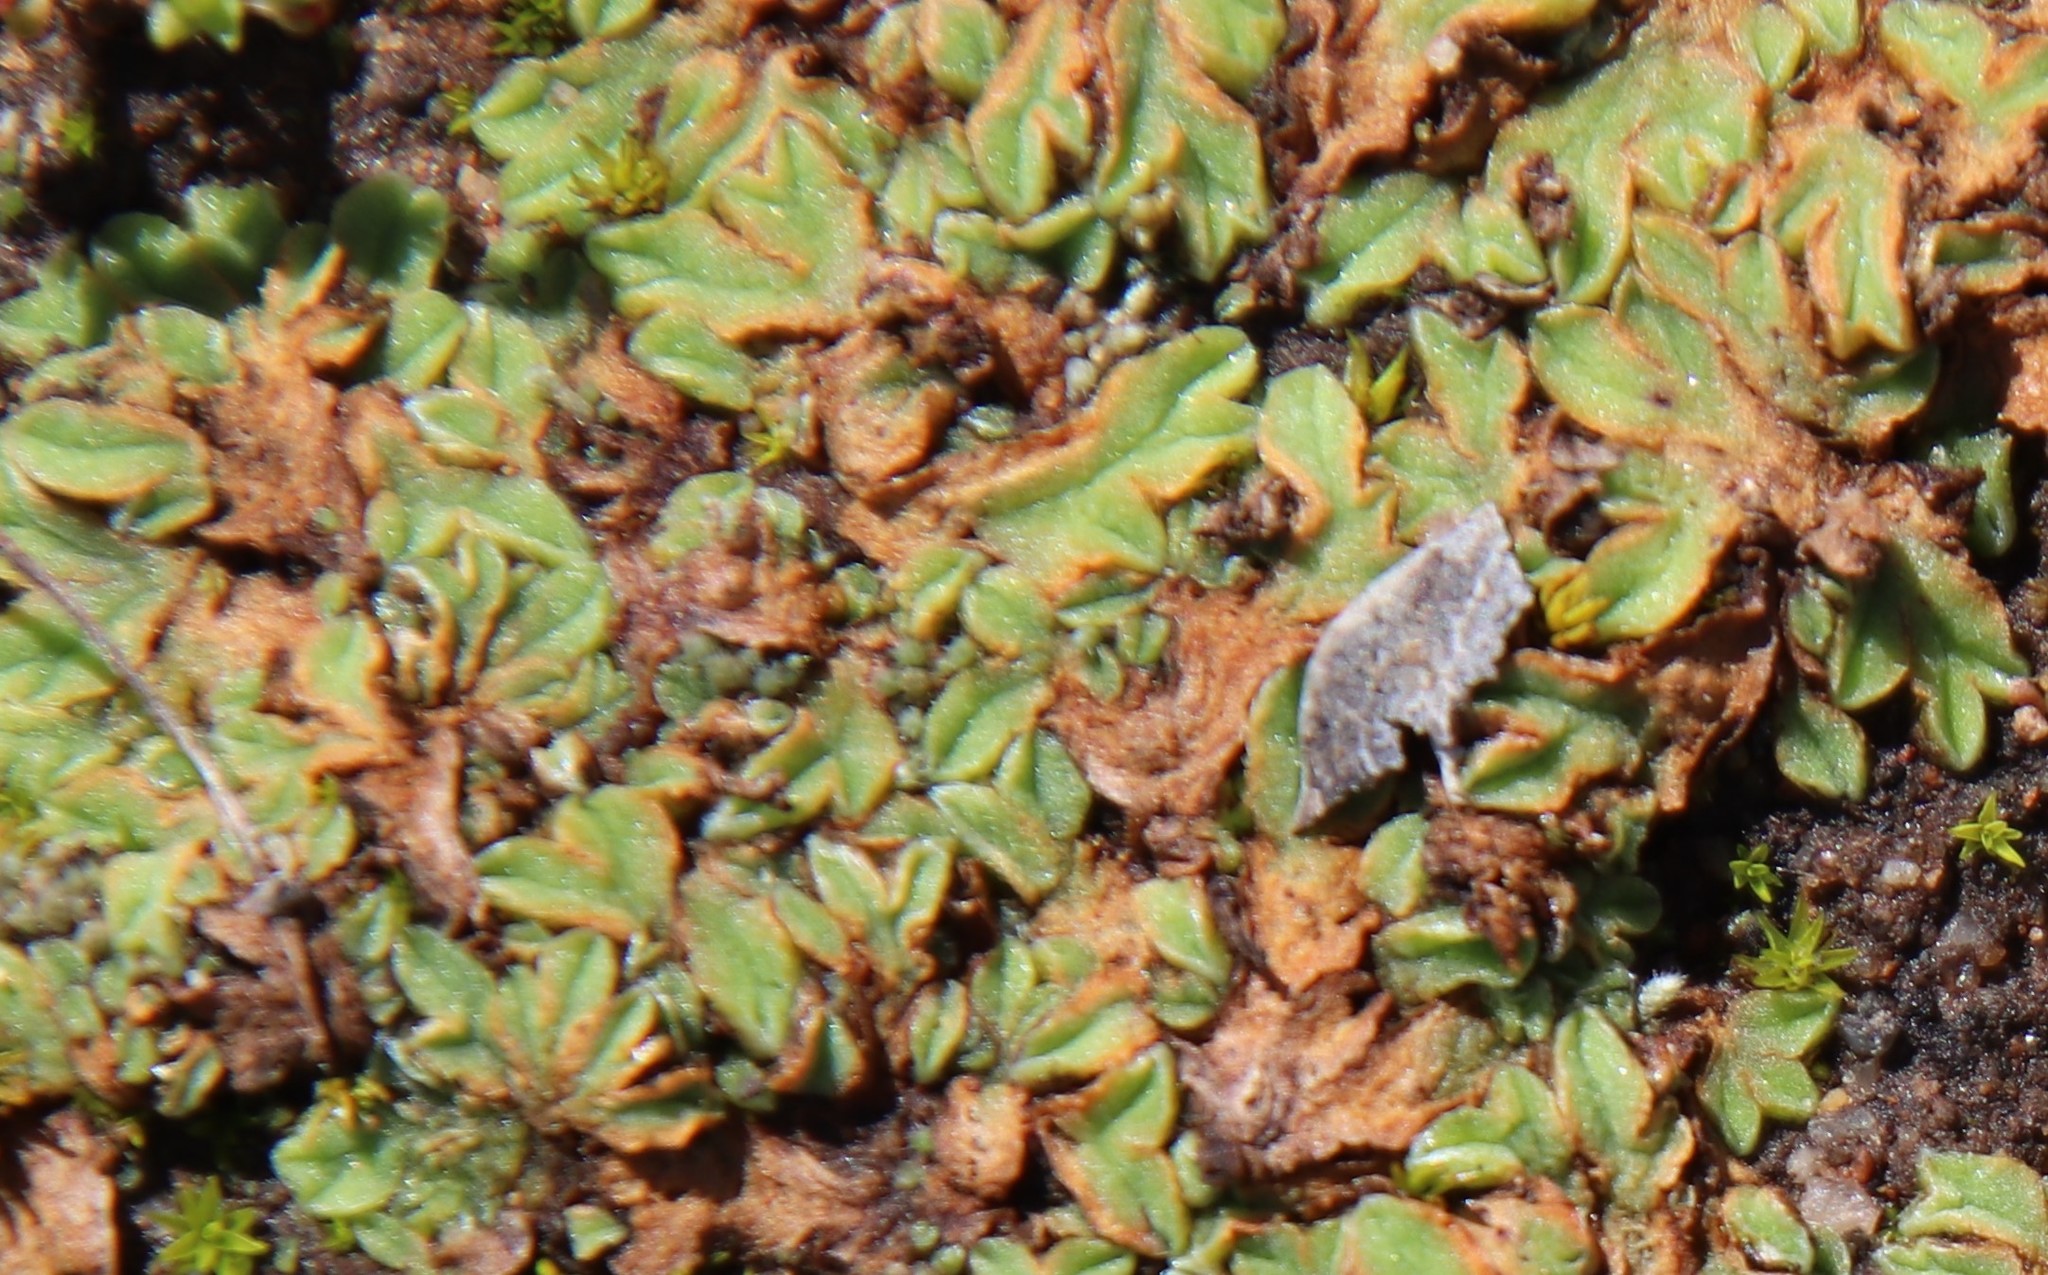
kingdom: Plantae
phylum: Marchantiophyta
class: Marchantiopsida
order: Marchantiales
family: Ricciaceae
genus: Riccia
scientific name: Riccia campbelliana
